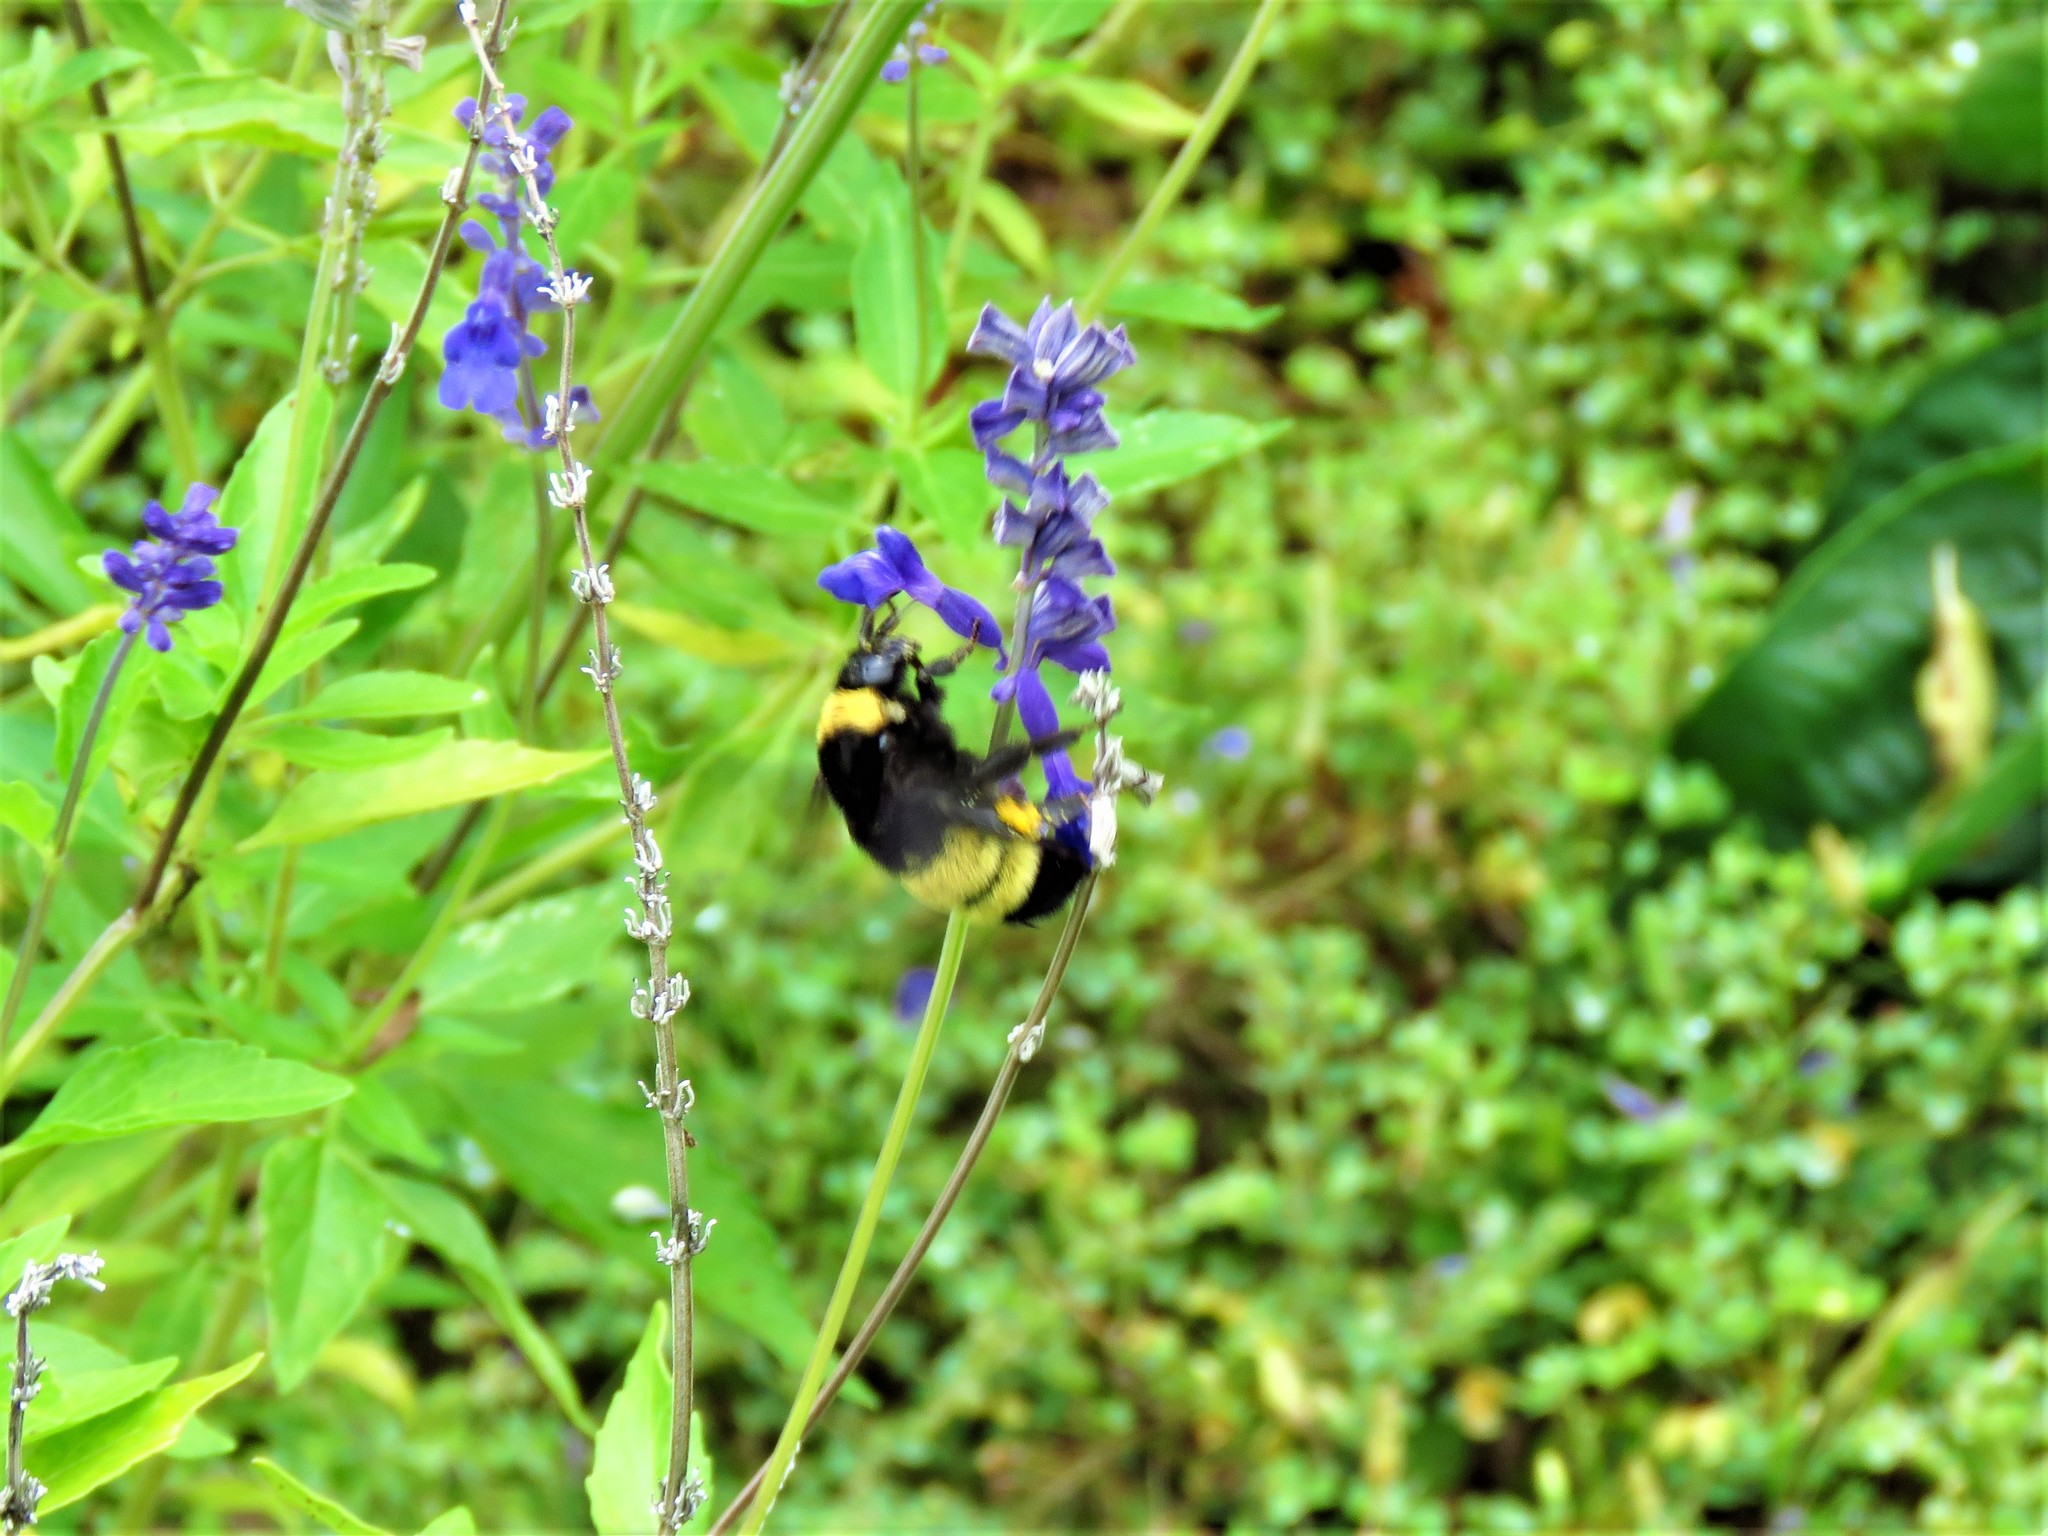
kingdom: Animalia
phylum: Arthropoda
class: Insecta
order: Hymenoptera
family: Apidae
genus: Bombus
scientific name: Bombus pensylvanicus
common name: Bumble bee
